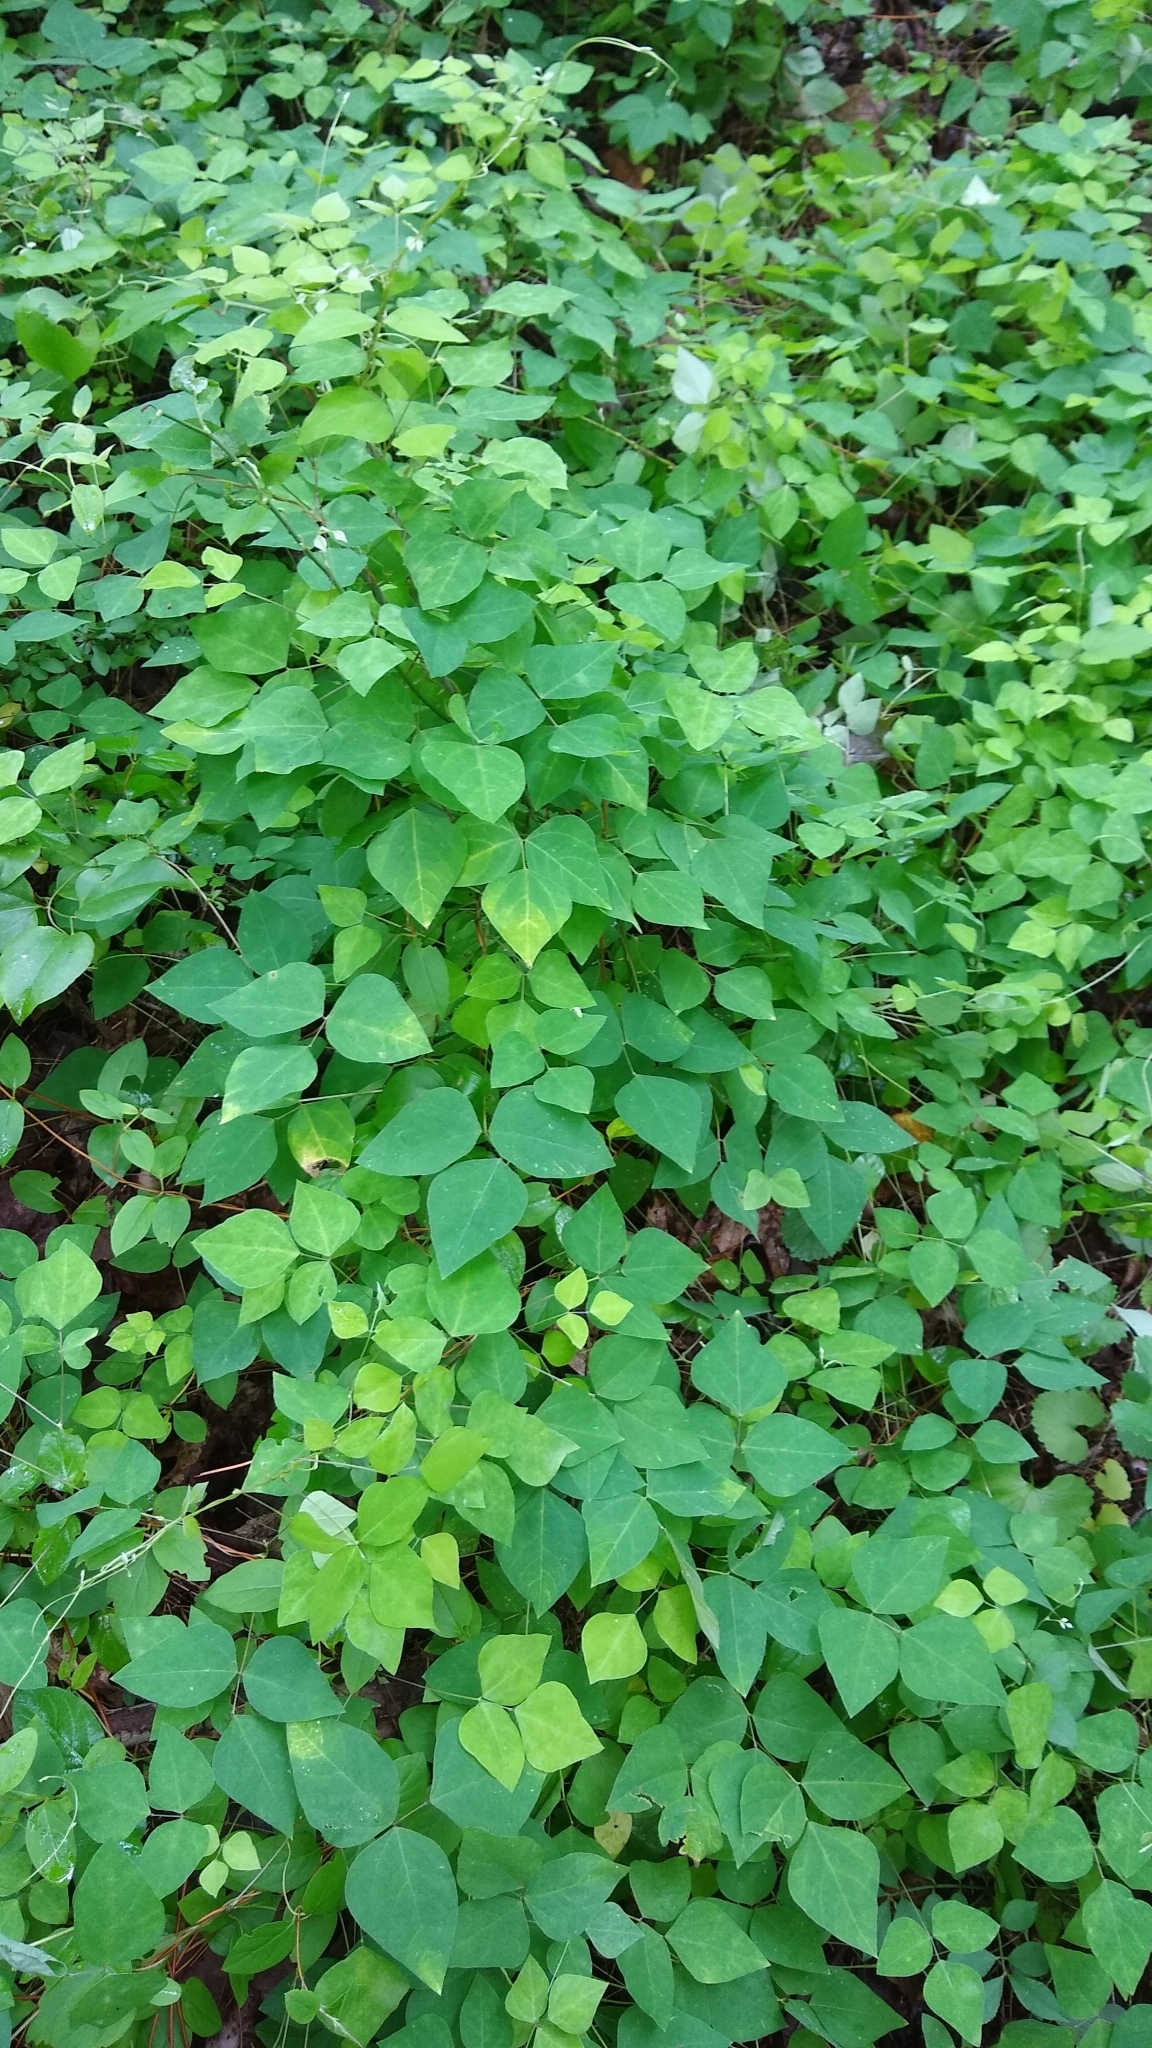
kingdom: Plantae
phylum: Tracheophyta
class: Magnoliopsida
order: Fabales
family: Fabaceae
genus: Amphicarpaea
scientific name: Amphicarpaea bracteata
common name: American hog peanut
